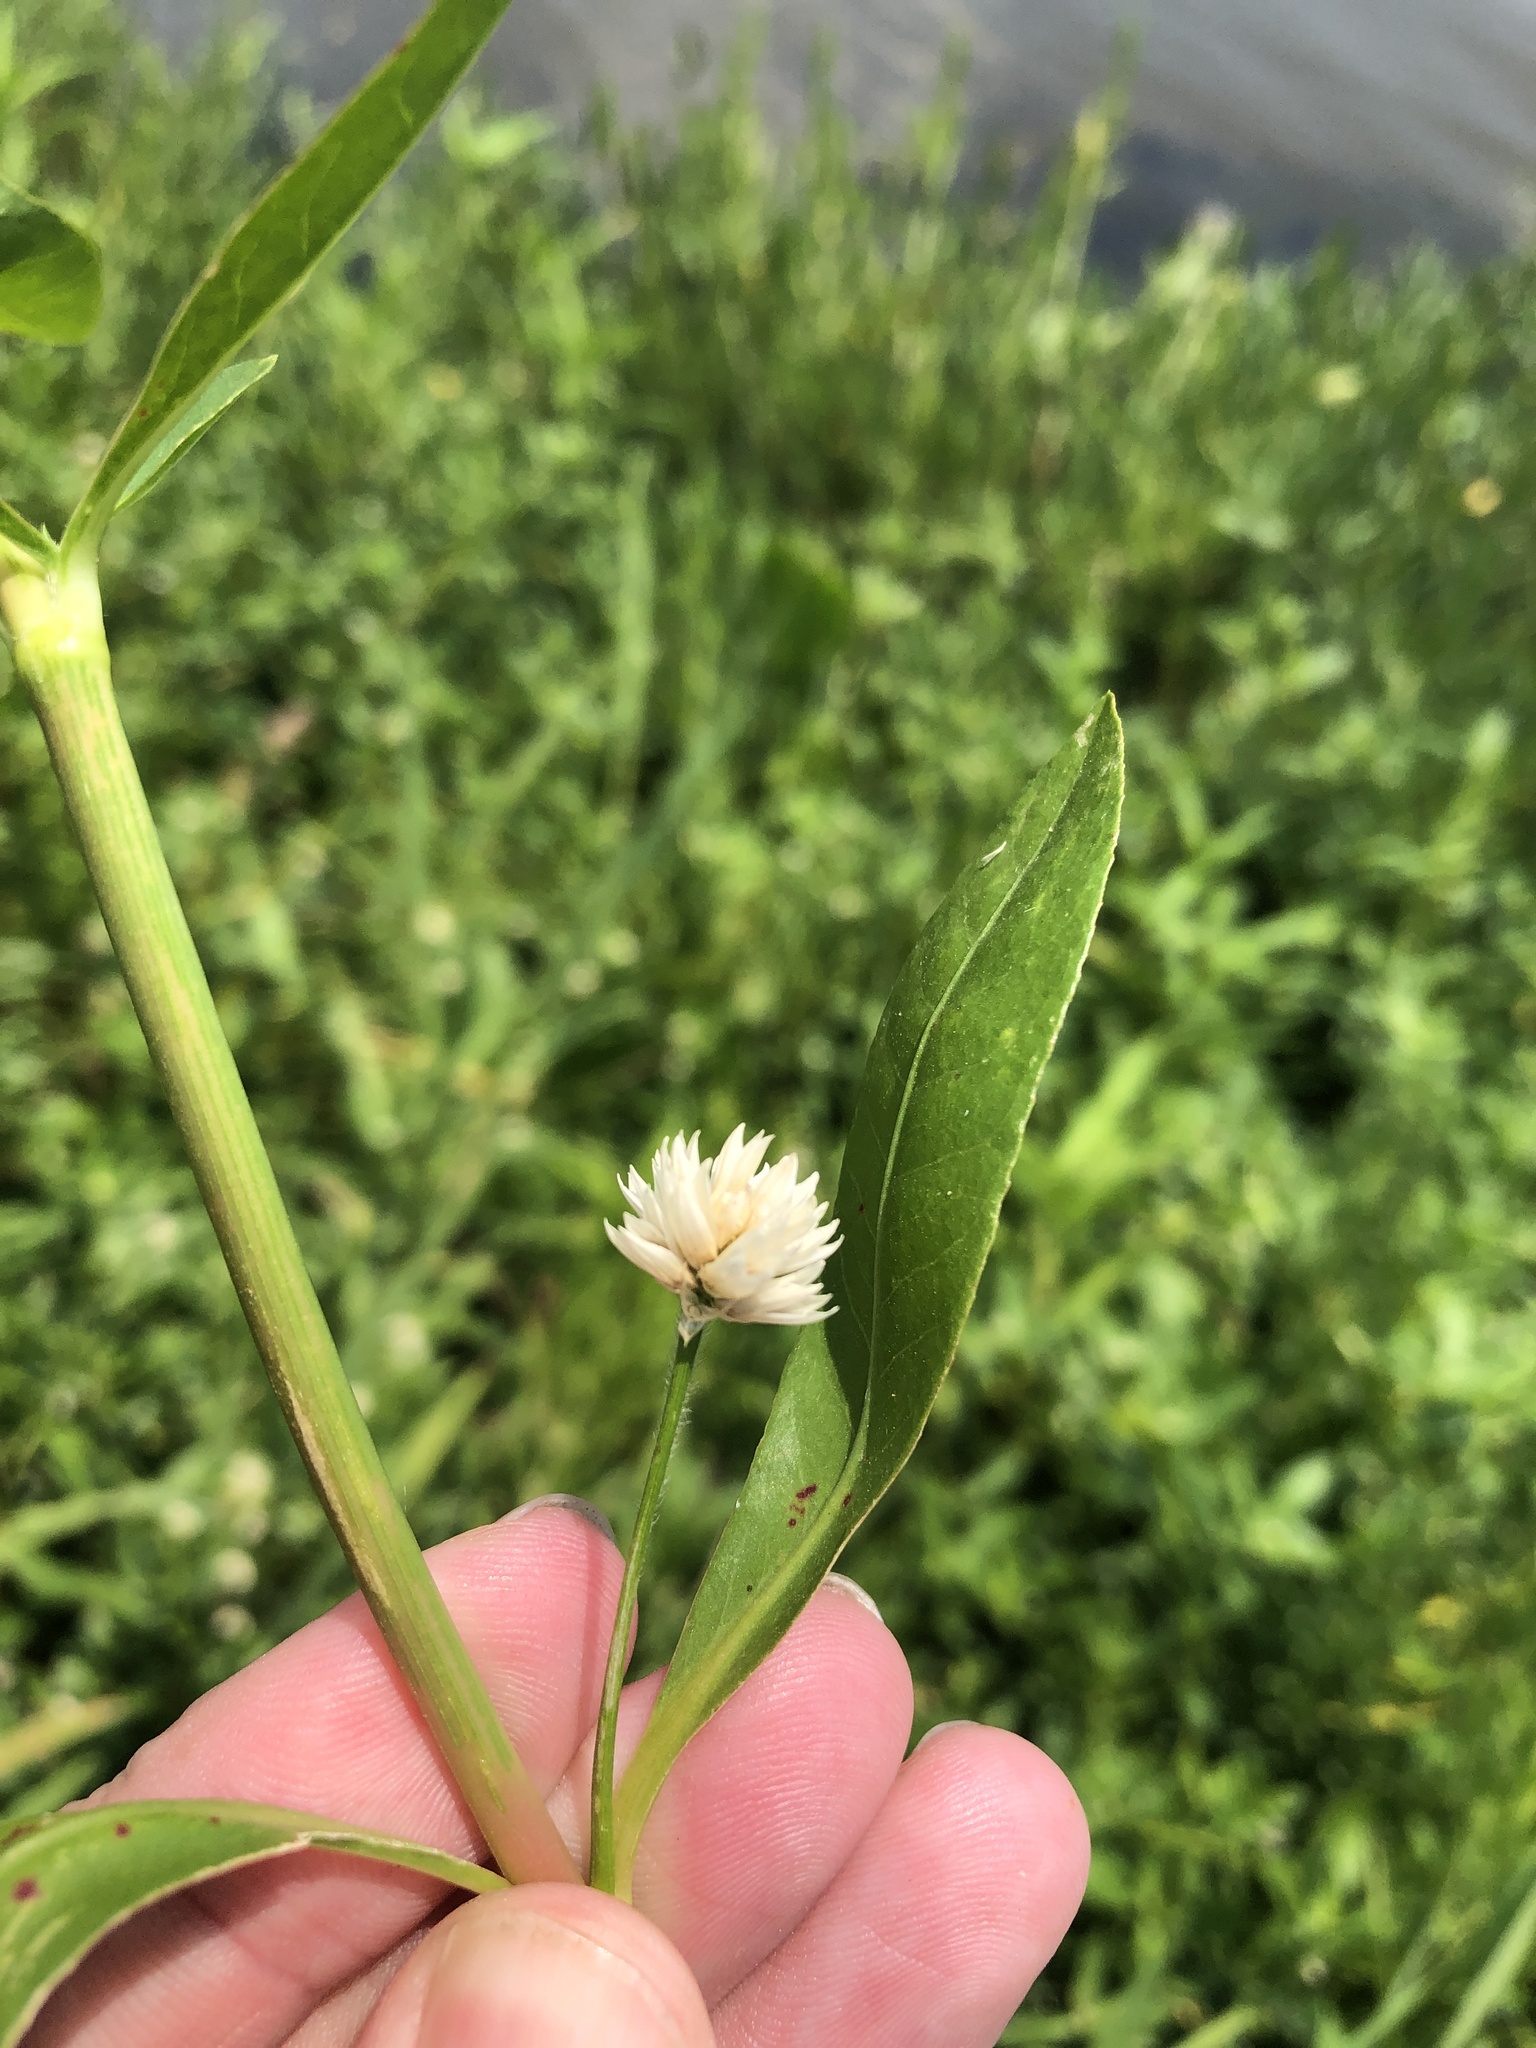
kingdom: Plantae
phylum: Tracheophyta
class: Magnoliopsida
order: Caryophyllales
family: Amaranthaceae
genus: Alternanthera
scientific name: Alternanthera philoxeroides
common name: Alligatorweed
